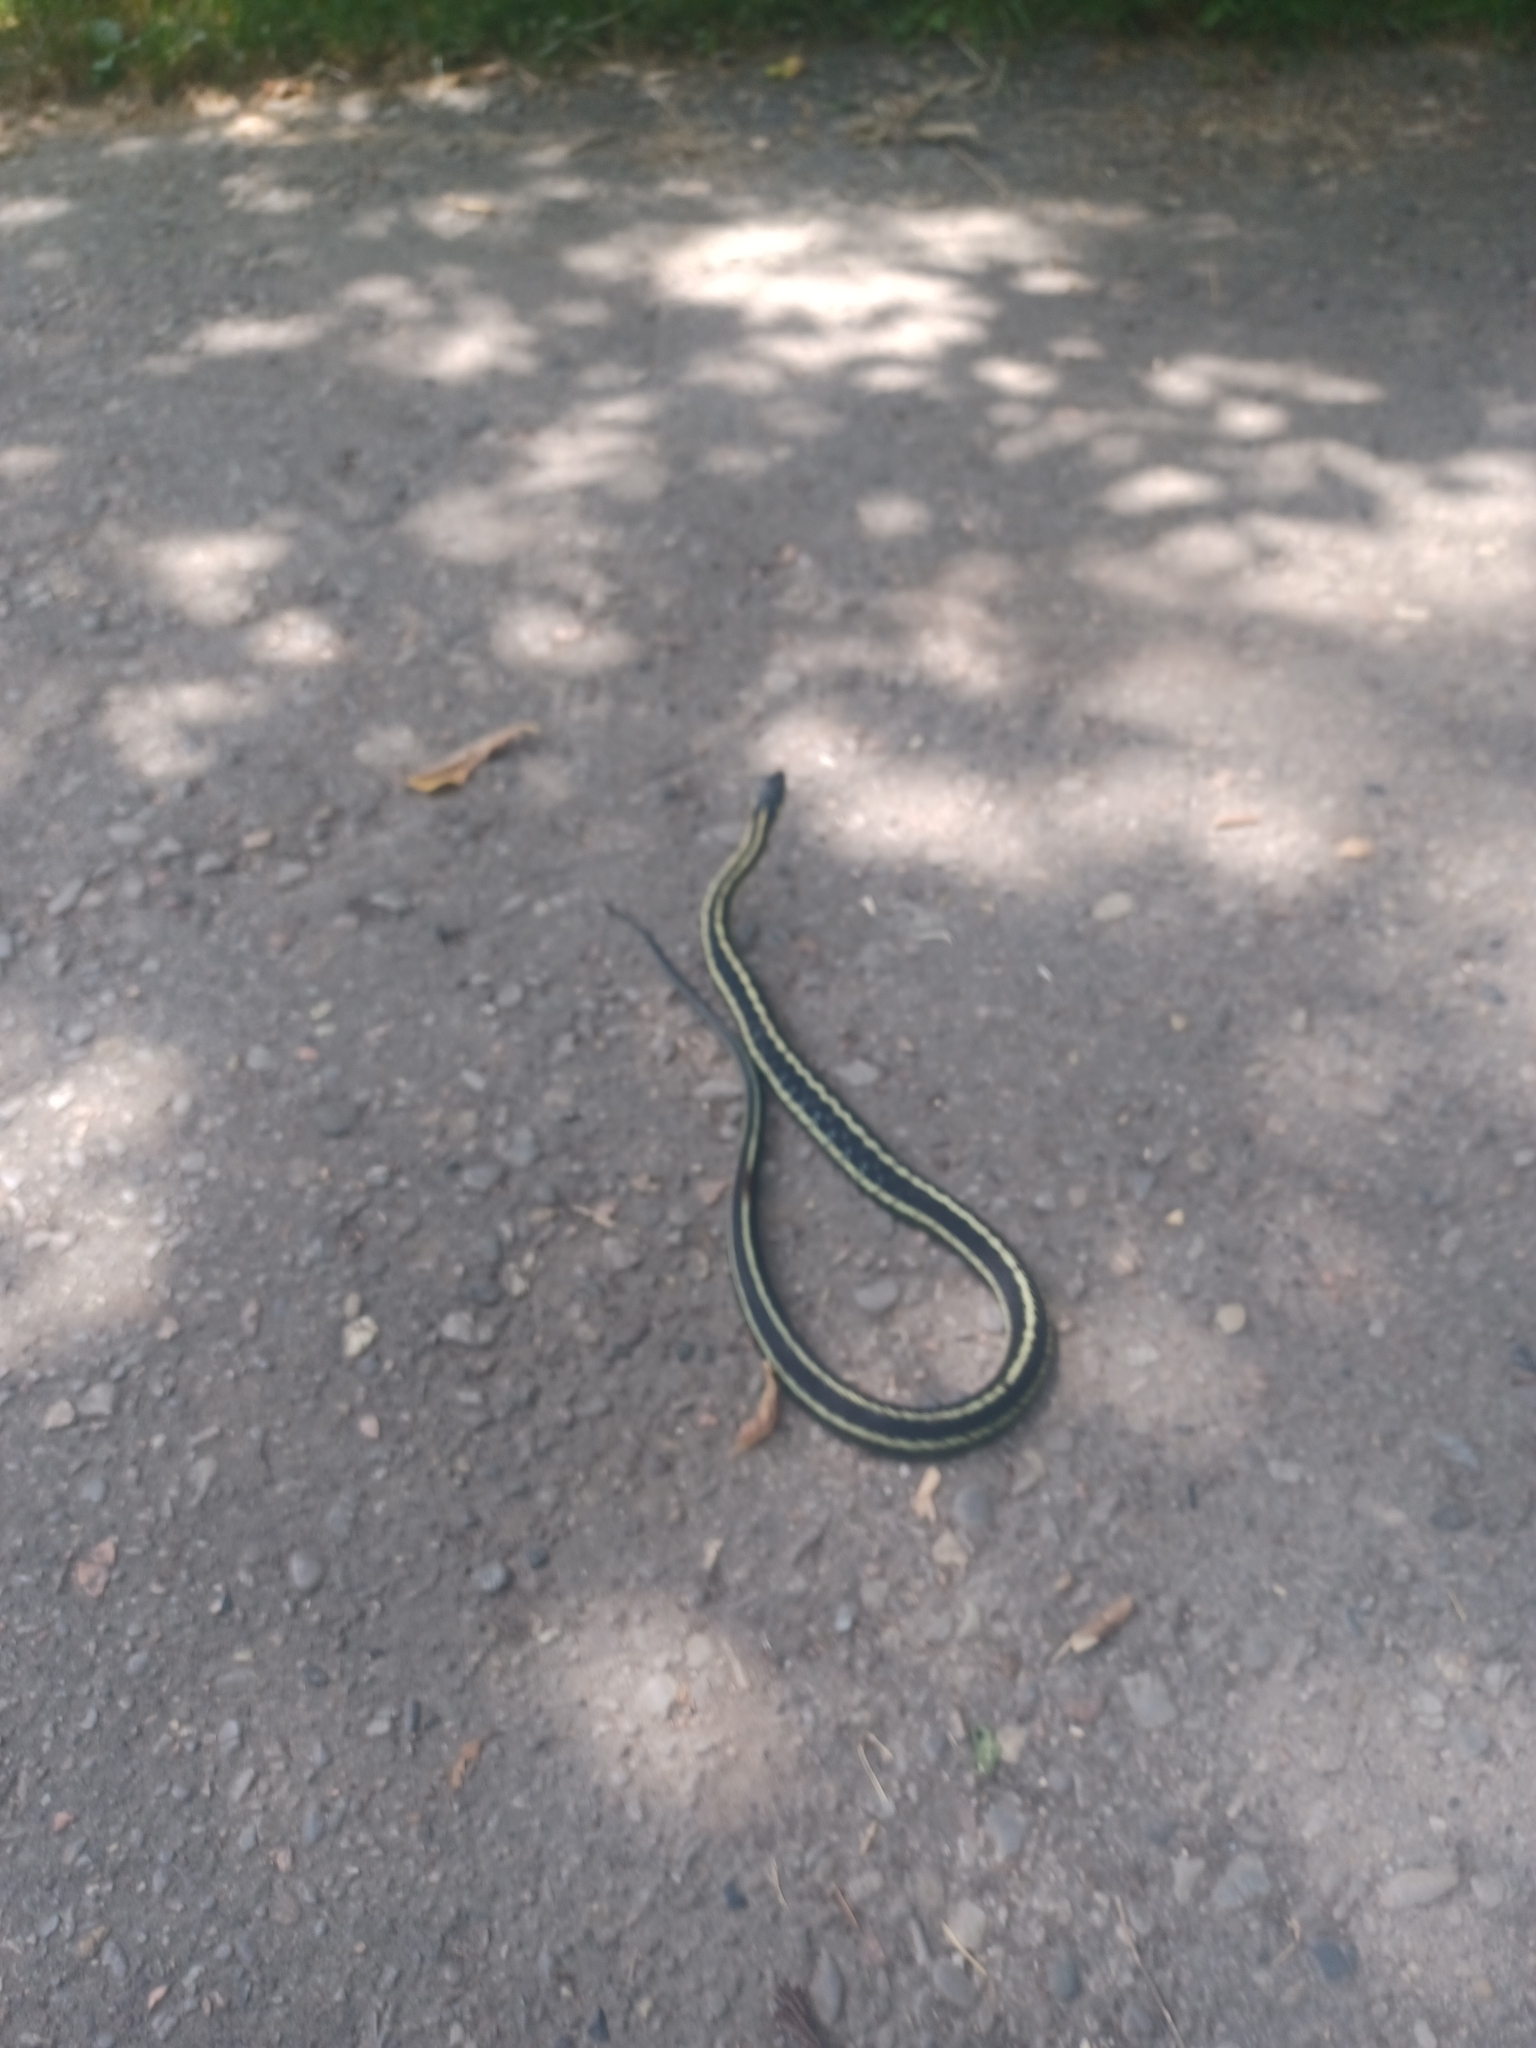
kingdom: Animalia
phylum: Chordata
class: Squamata
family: Colubridae
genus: Thamnophis
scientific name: Thamnophis sirtalis
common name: Common garter snake
